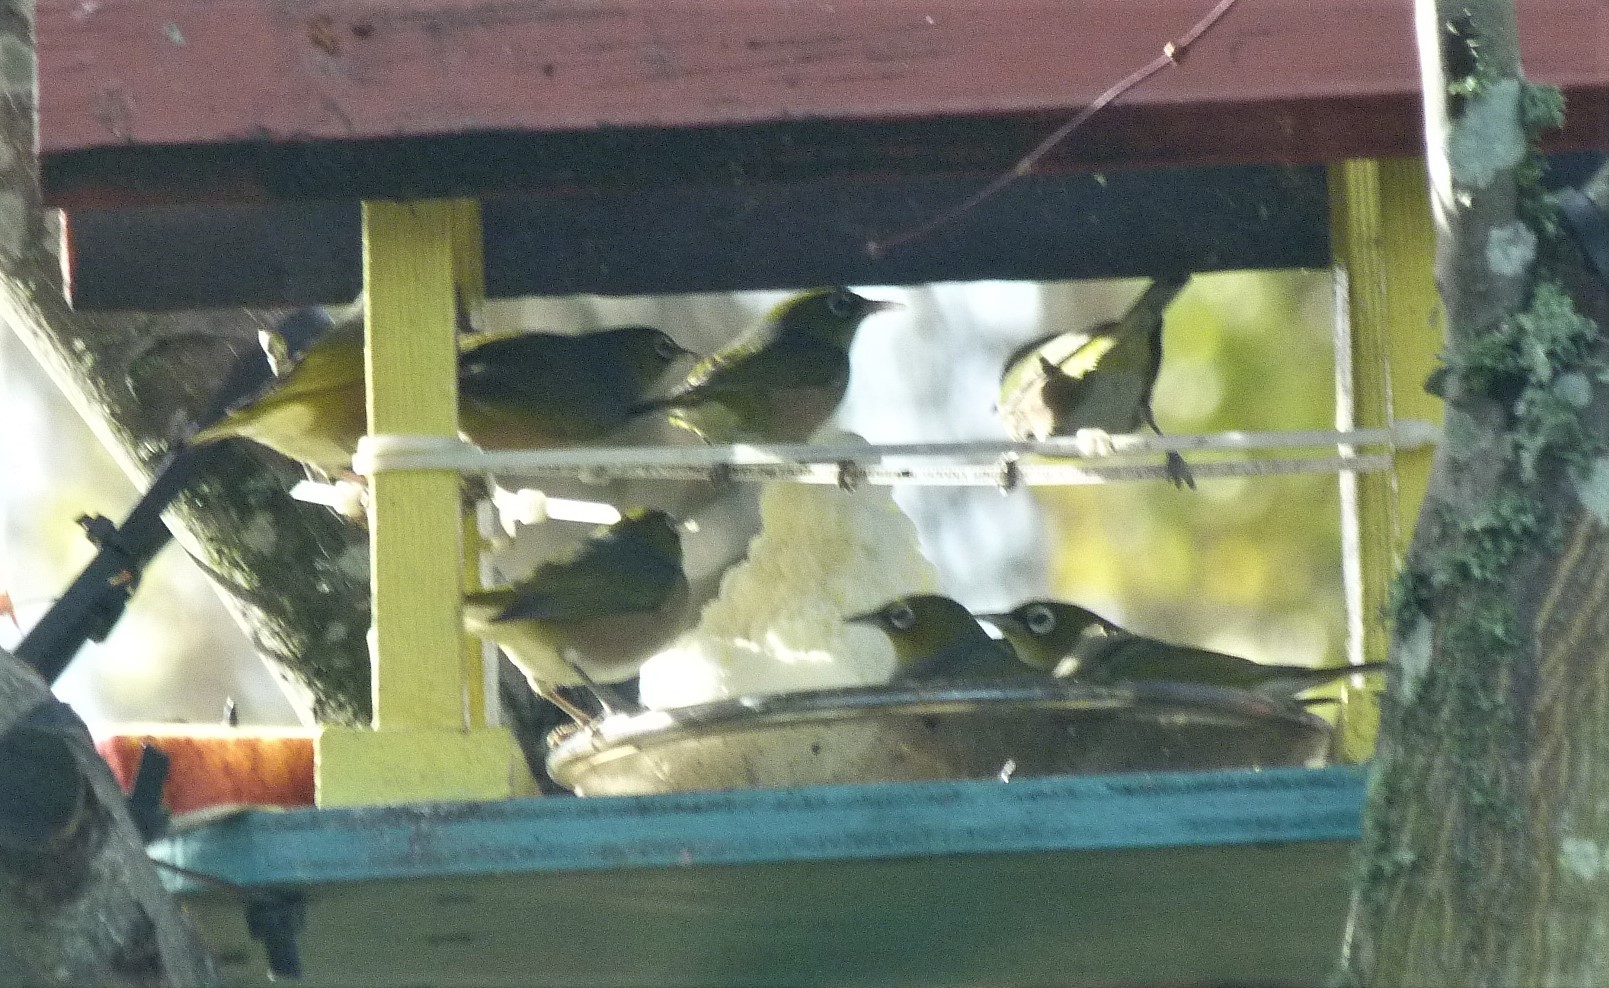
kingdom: Animalia
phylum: Chordata
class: Aves
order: Passeriformes
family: Zosteropidae
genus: Zosterops
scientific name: Zosterops lateralis
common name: Silvereye
